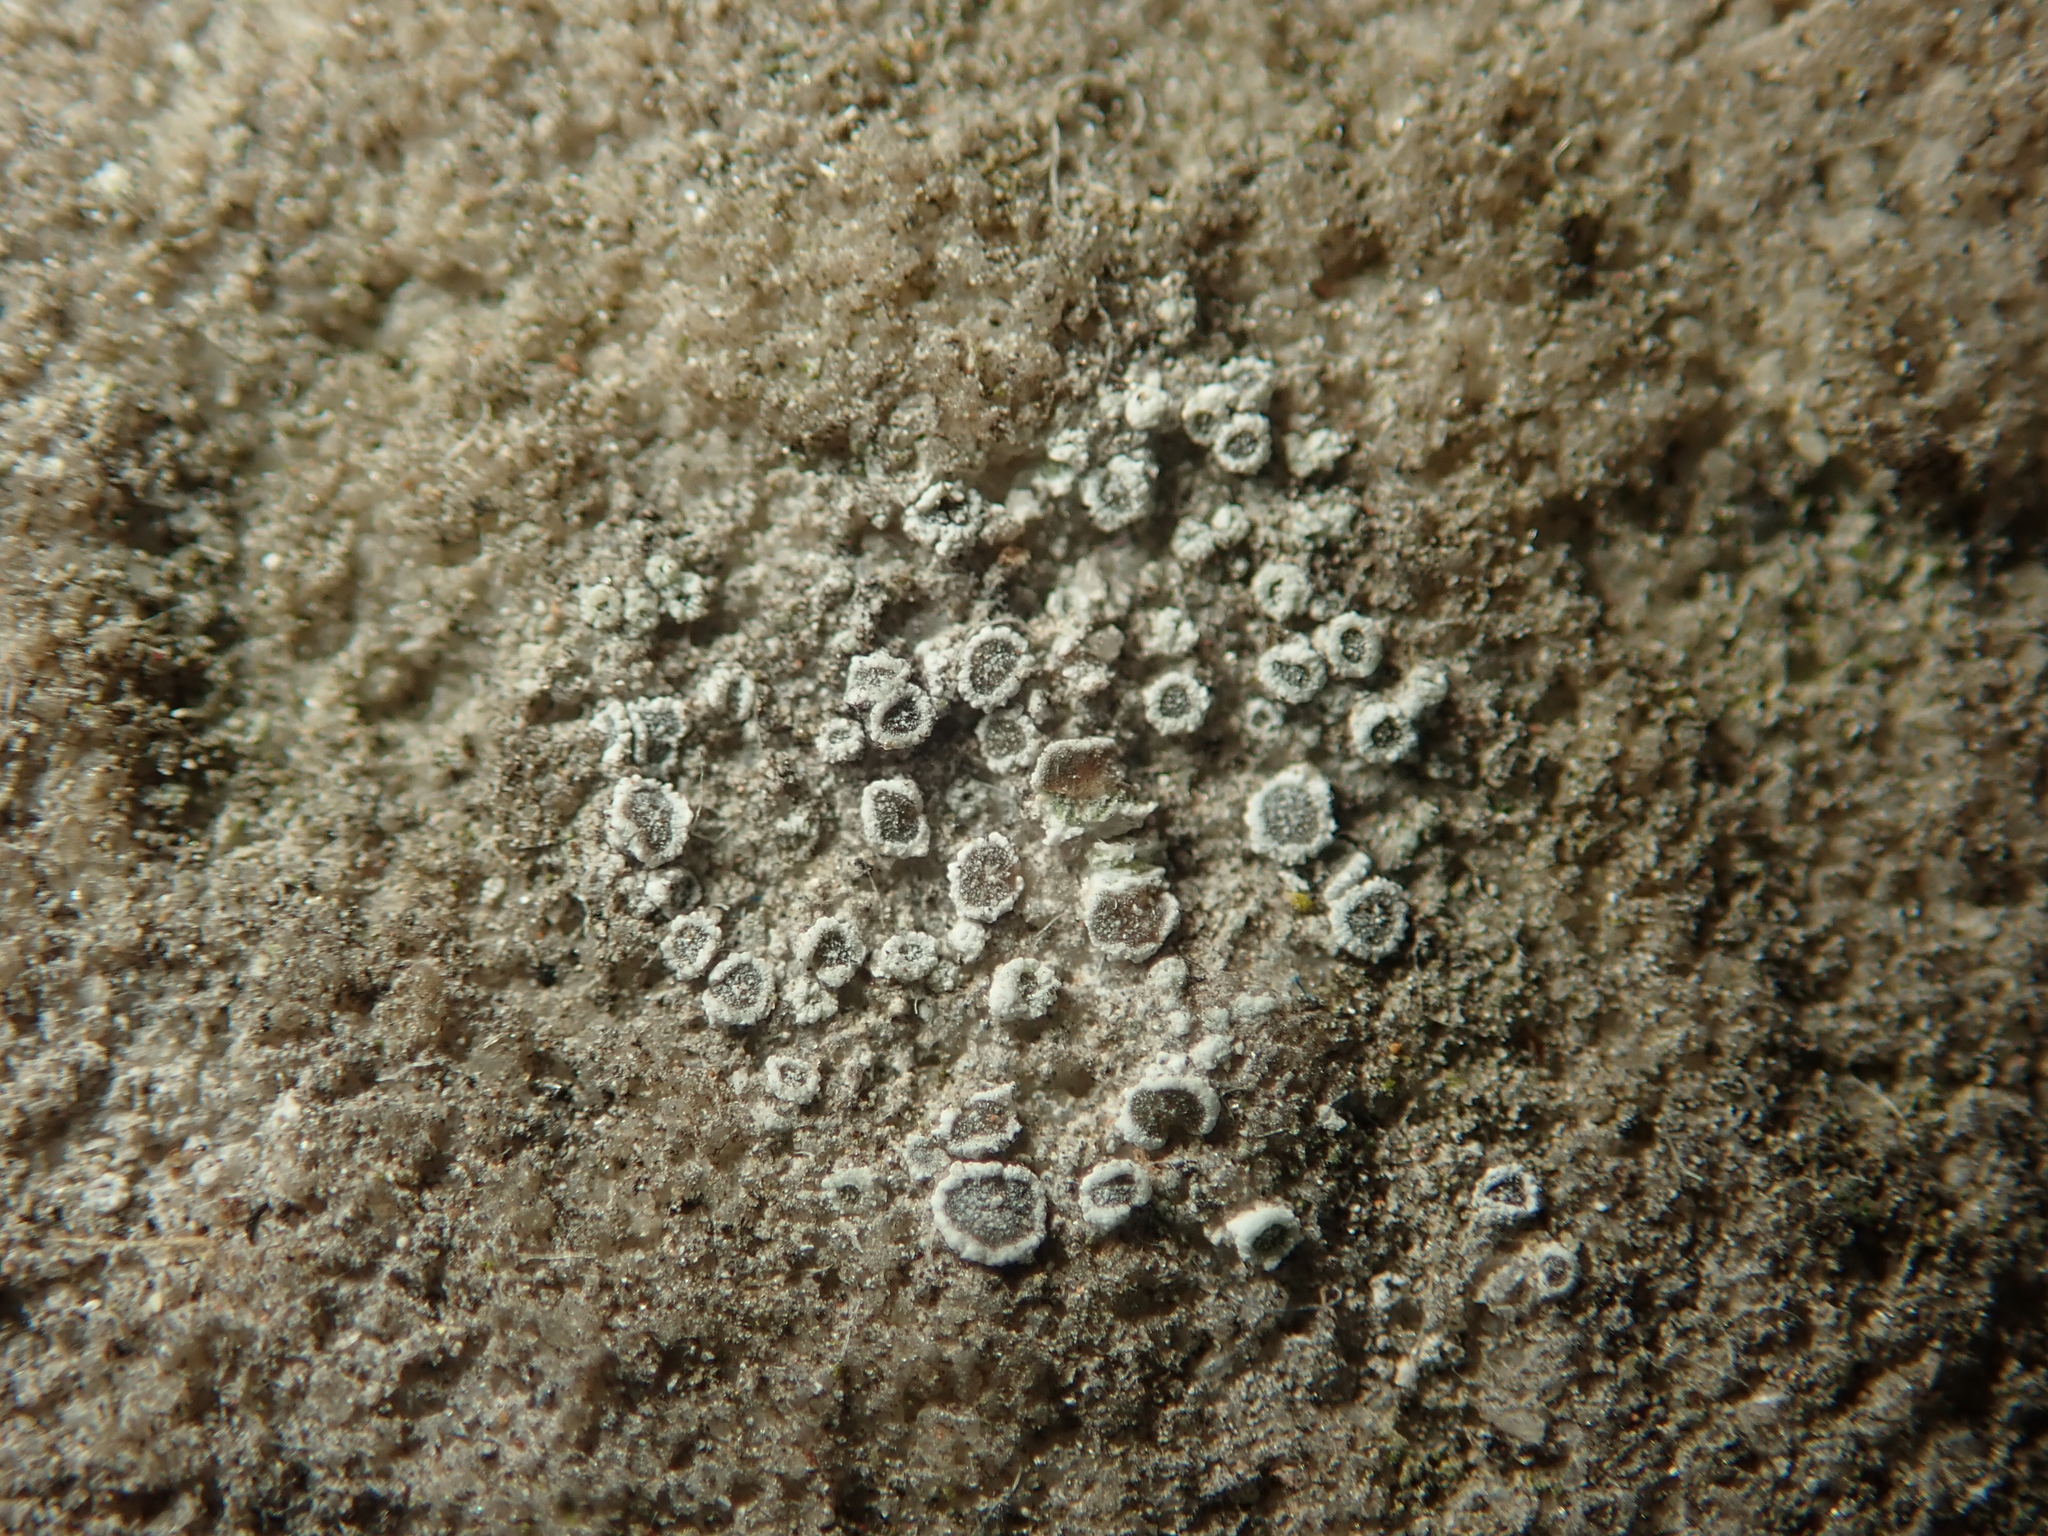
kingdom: Fungi
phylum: Ascomycota
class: Lecanoromycetes
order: Lecanorales
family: Lecanoraceae
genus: Polyozosia
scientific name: Polyozosia dispersa
